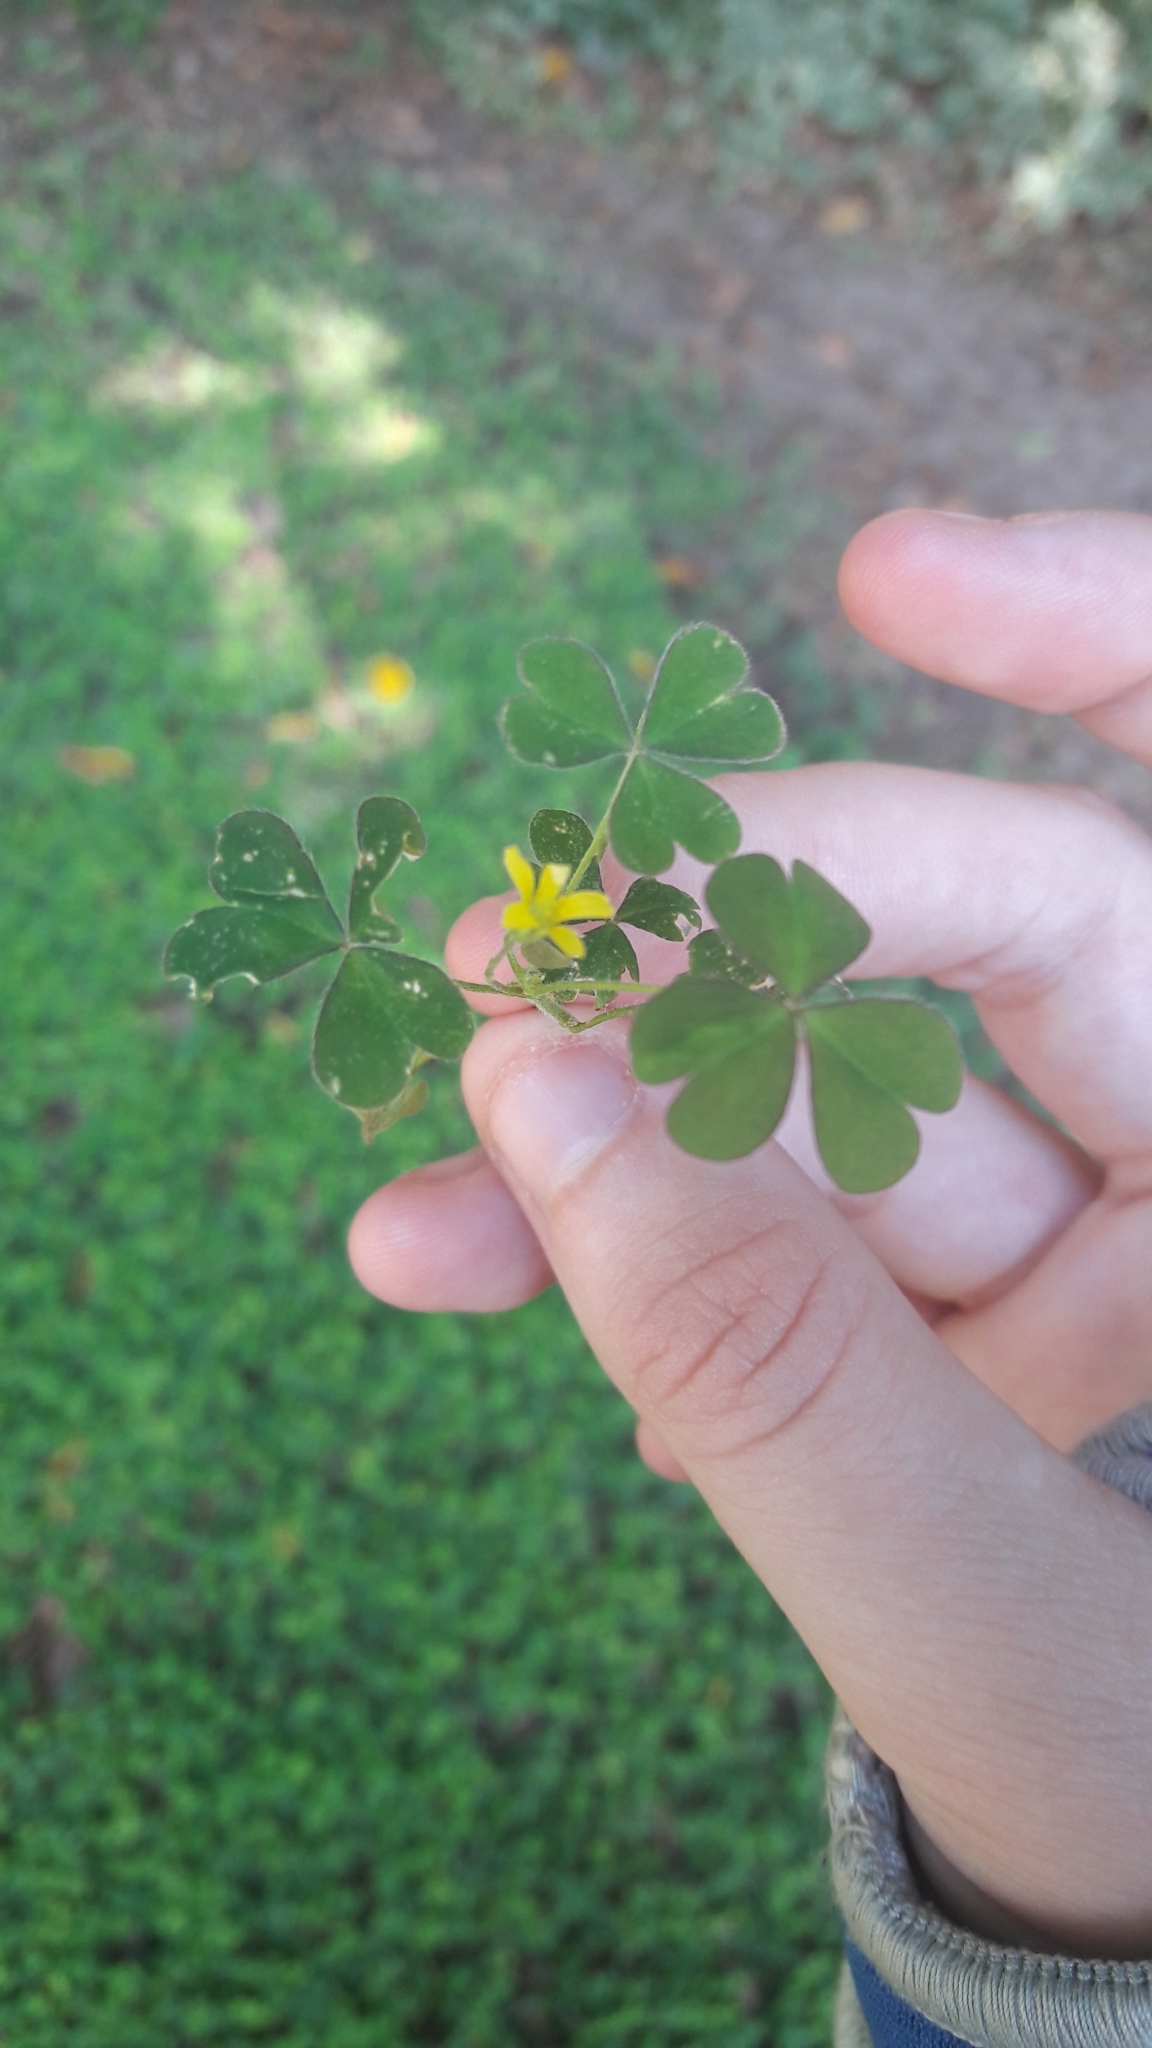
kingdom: Plantae
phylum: Tracheophyta
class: Magnoliopsida
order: Oxalidales
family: Oxalidaceae
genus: Oxalis
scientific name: Oxalis corniculata
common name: Procumbent yellow-sorrel
